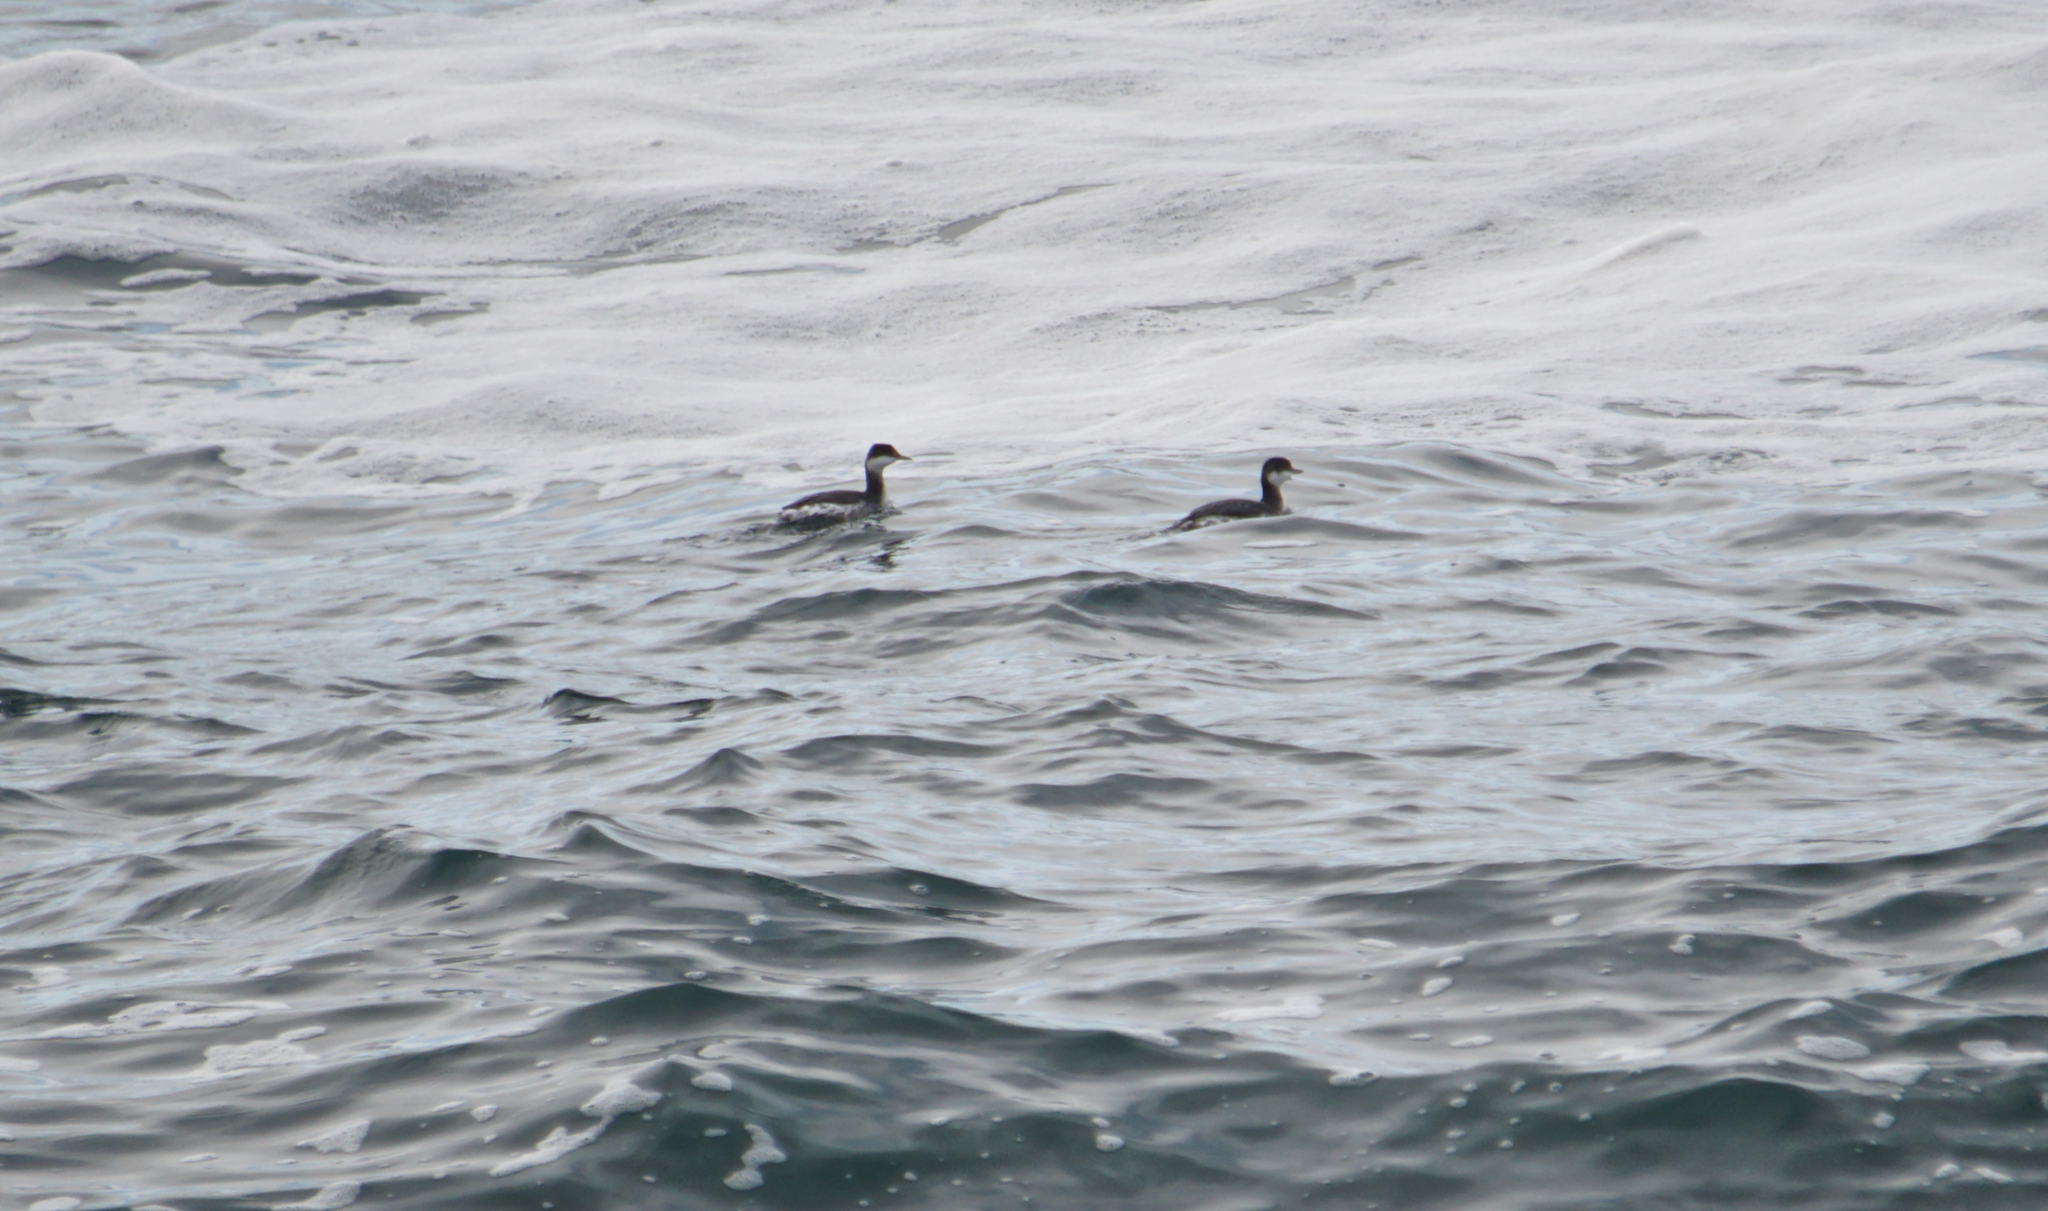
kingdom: Animalia
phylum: Chordata
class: Aves
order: Podicipediformes
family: Podicipedidae
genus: Podiceps
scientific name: Podiceps auritus
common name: Horned grebe
